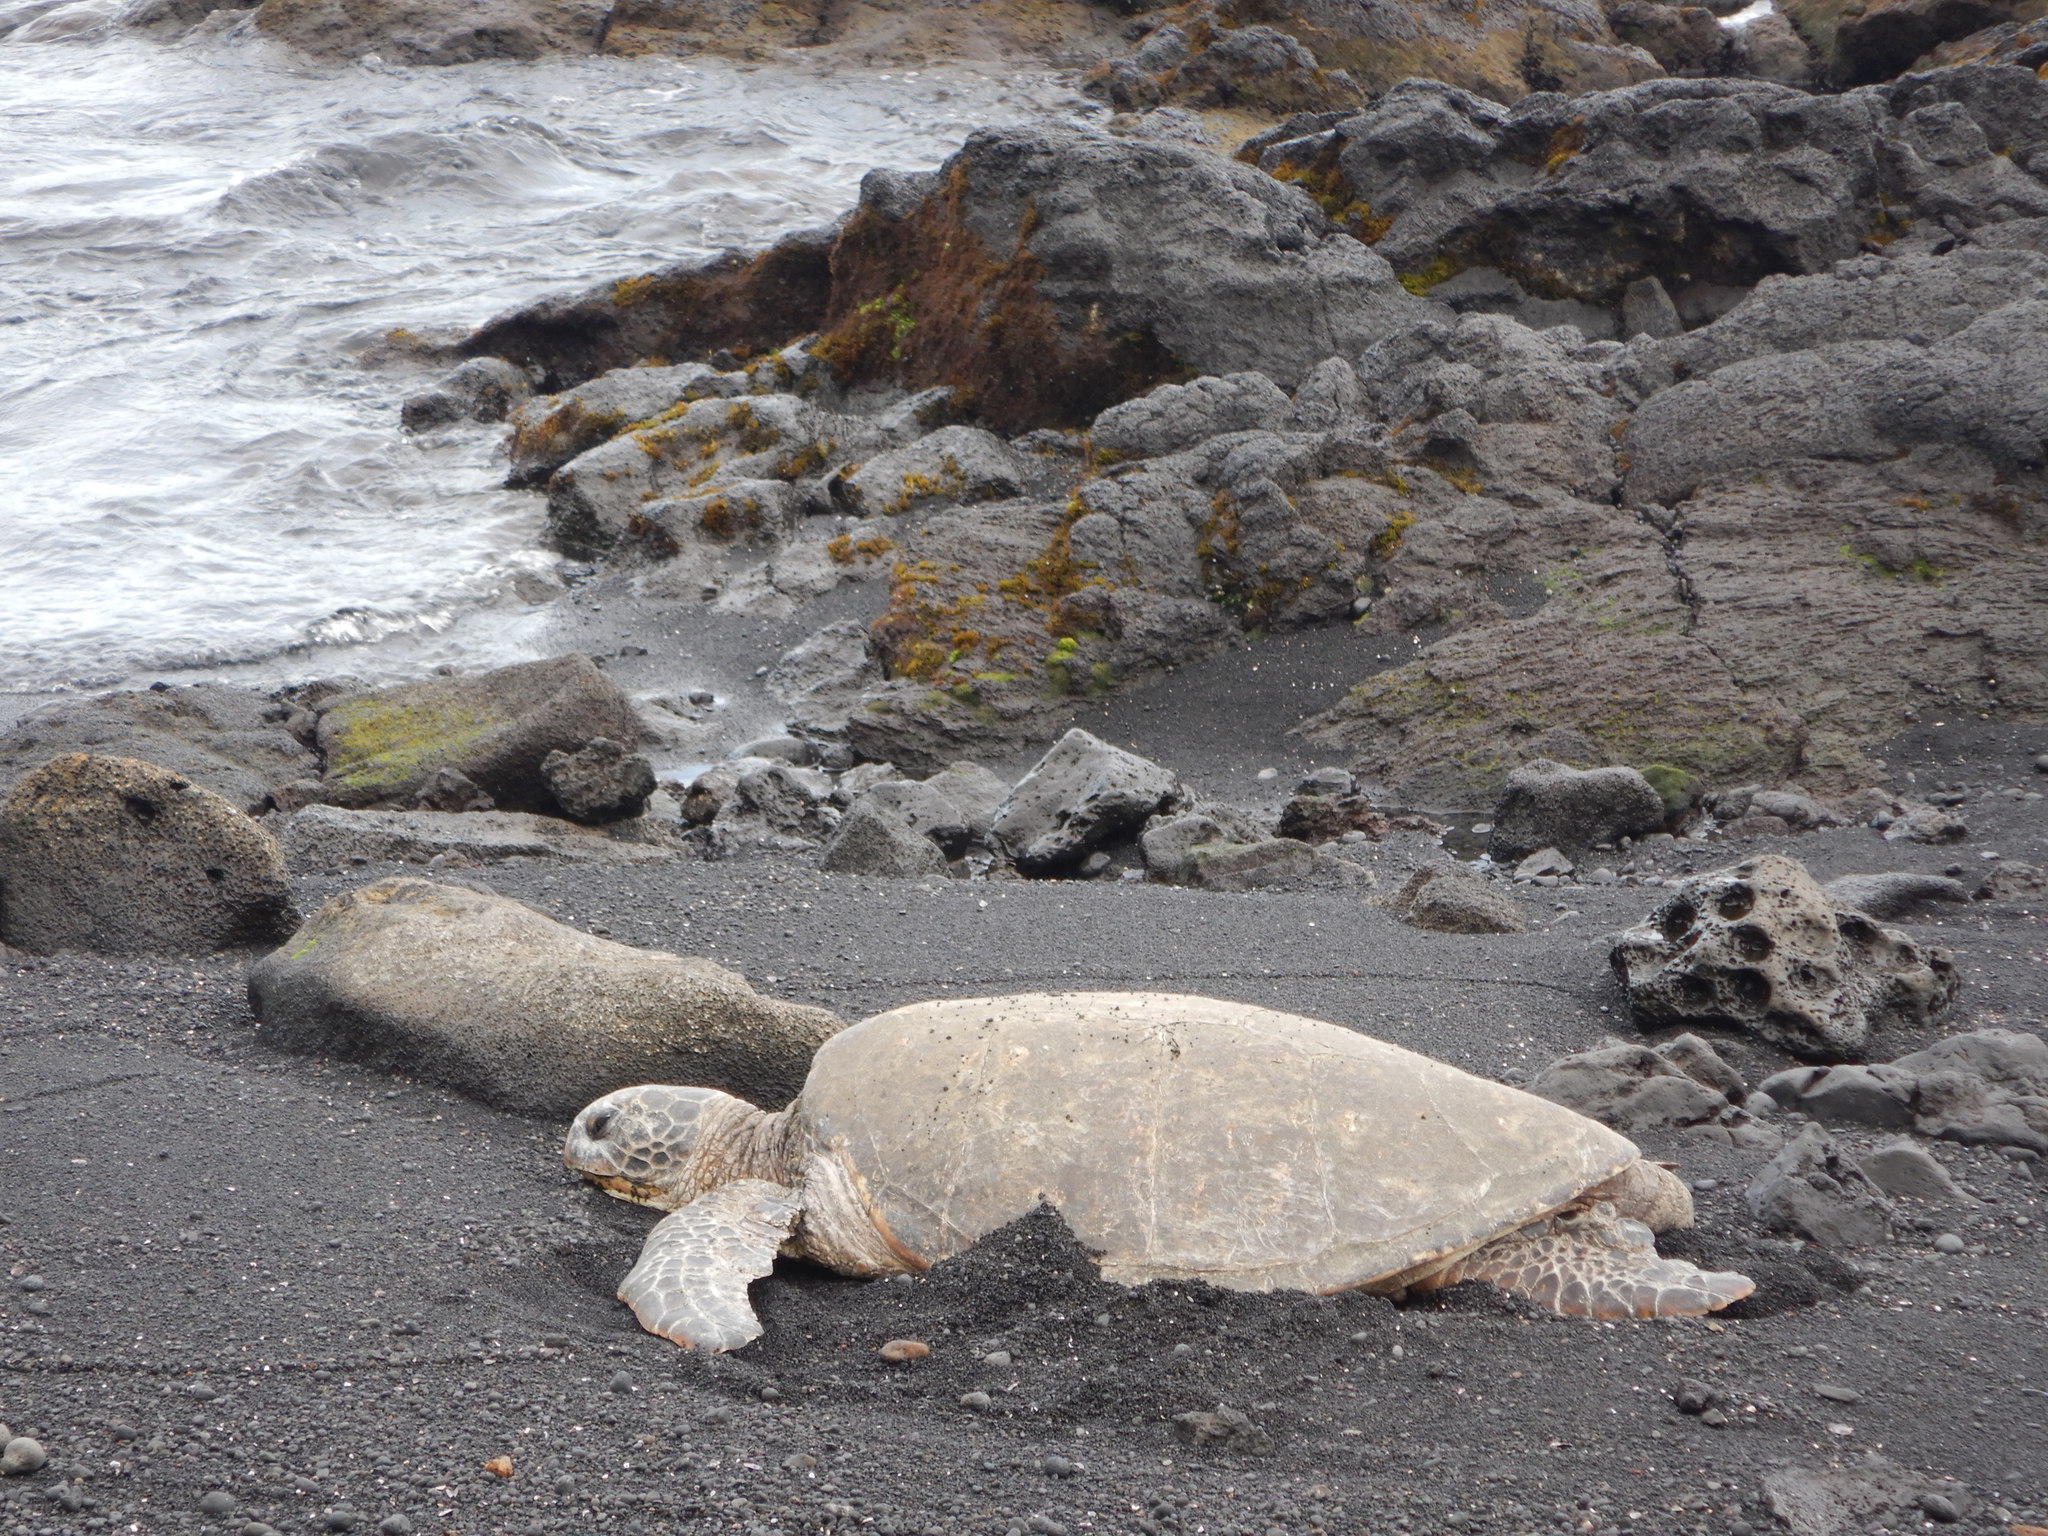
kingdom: Animalia
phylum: Chordata
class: Testudines
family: Cheloniidae
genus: Chelonia
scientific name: Chelonia mydas
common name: Green turtle
